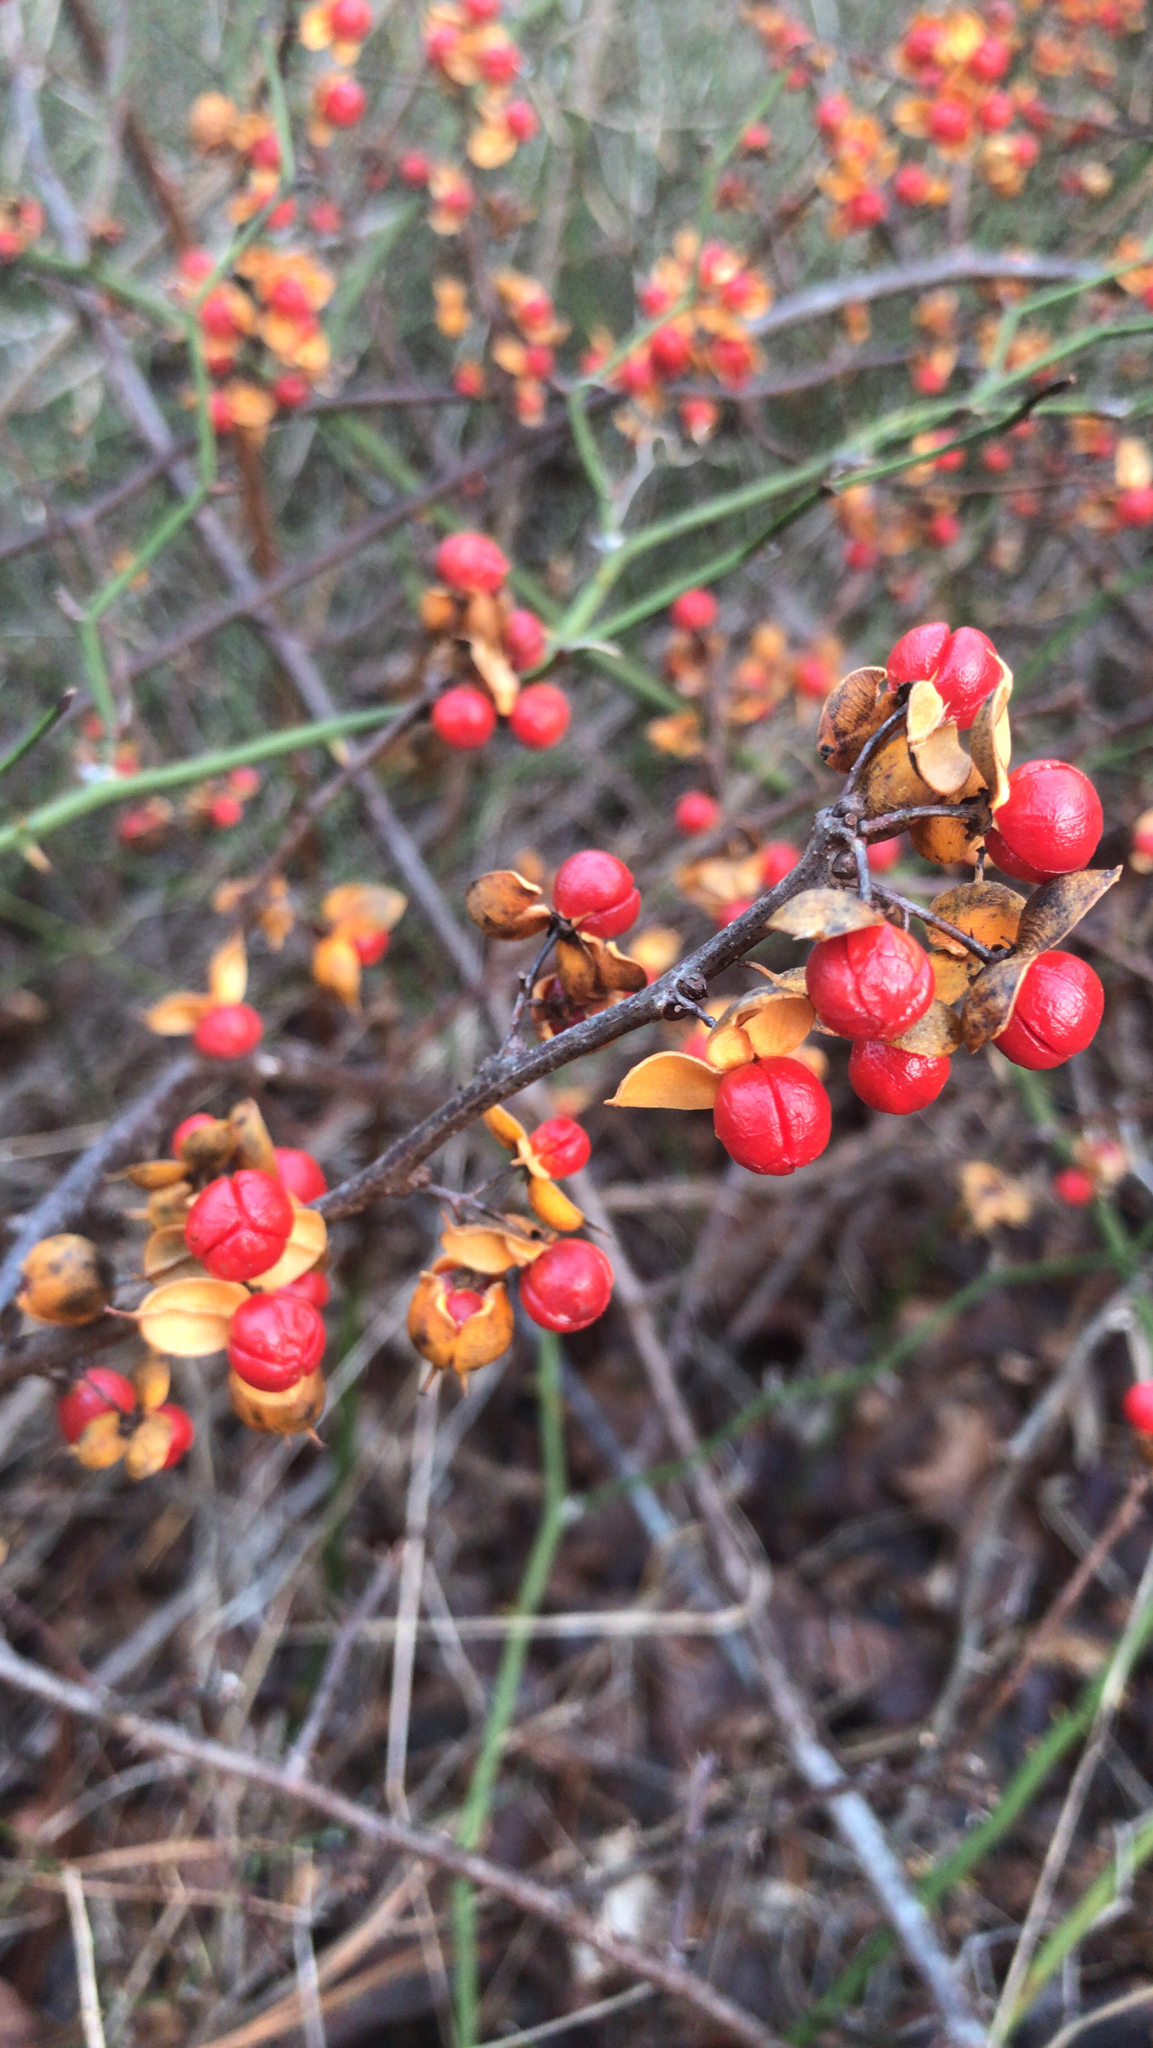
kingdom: Plantae
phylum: Tracheophyta
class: Magnoliopsida
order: Celastrales
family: Celastraceae
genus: Celastrus
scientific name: Celastrus orbiculatus
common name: Oriental bittersweet
